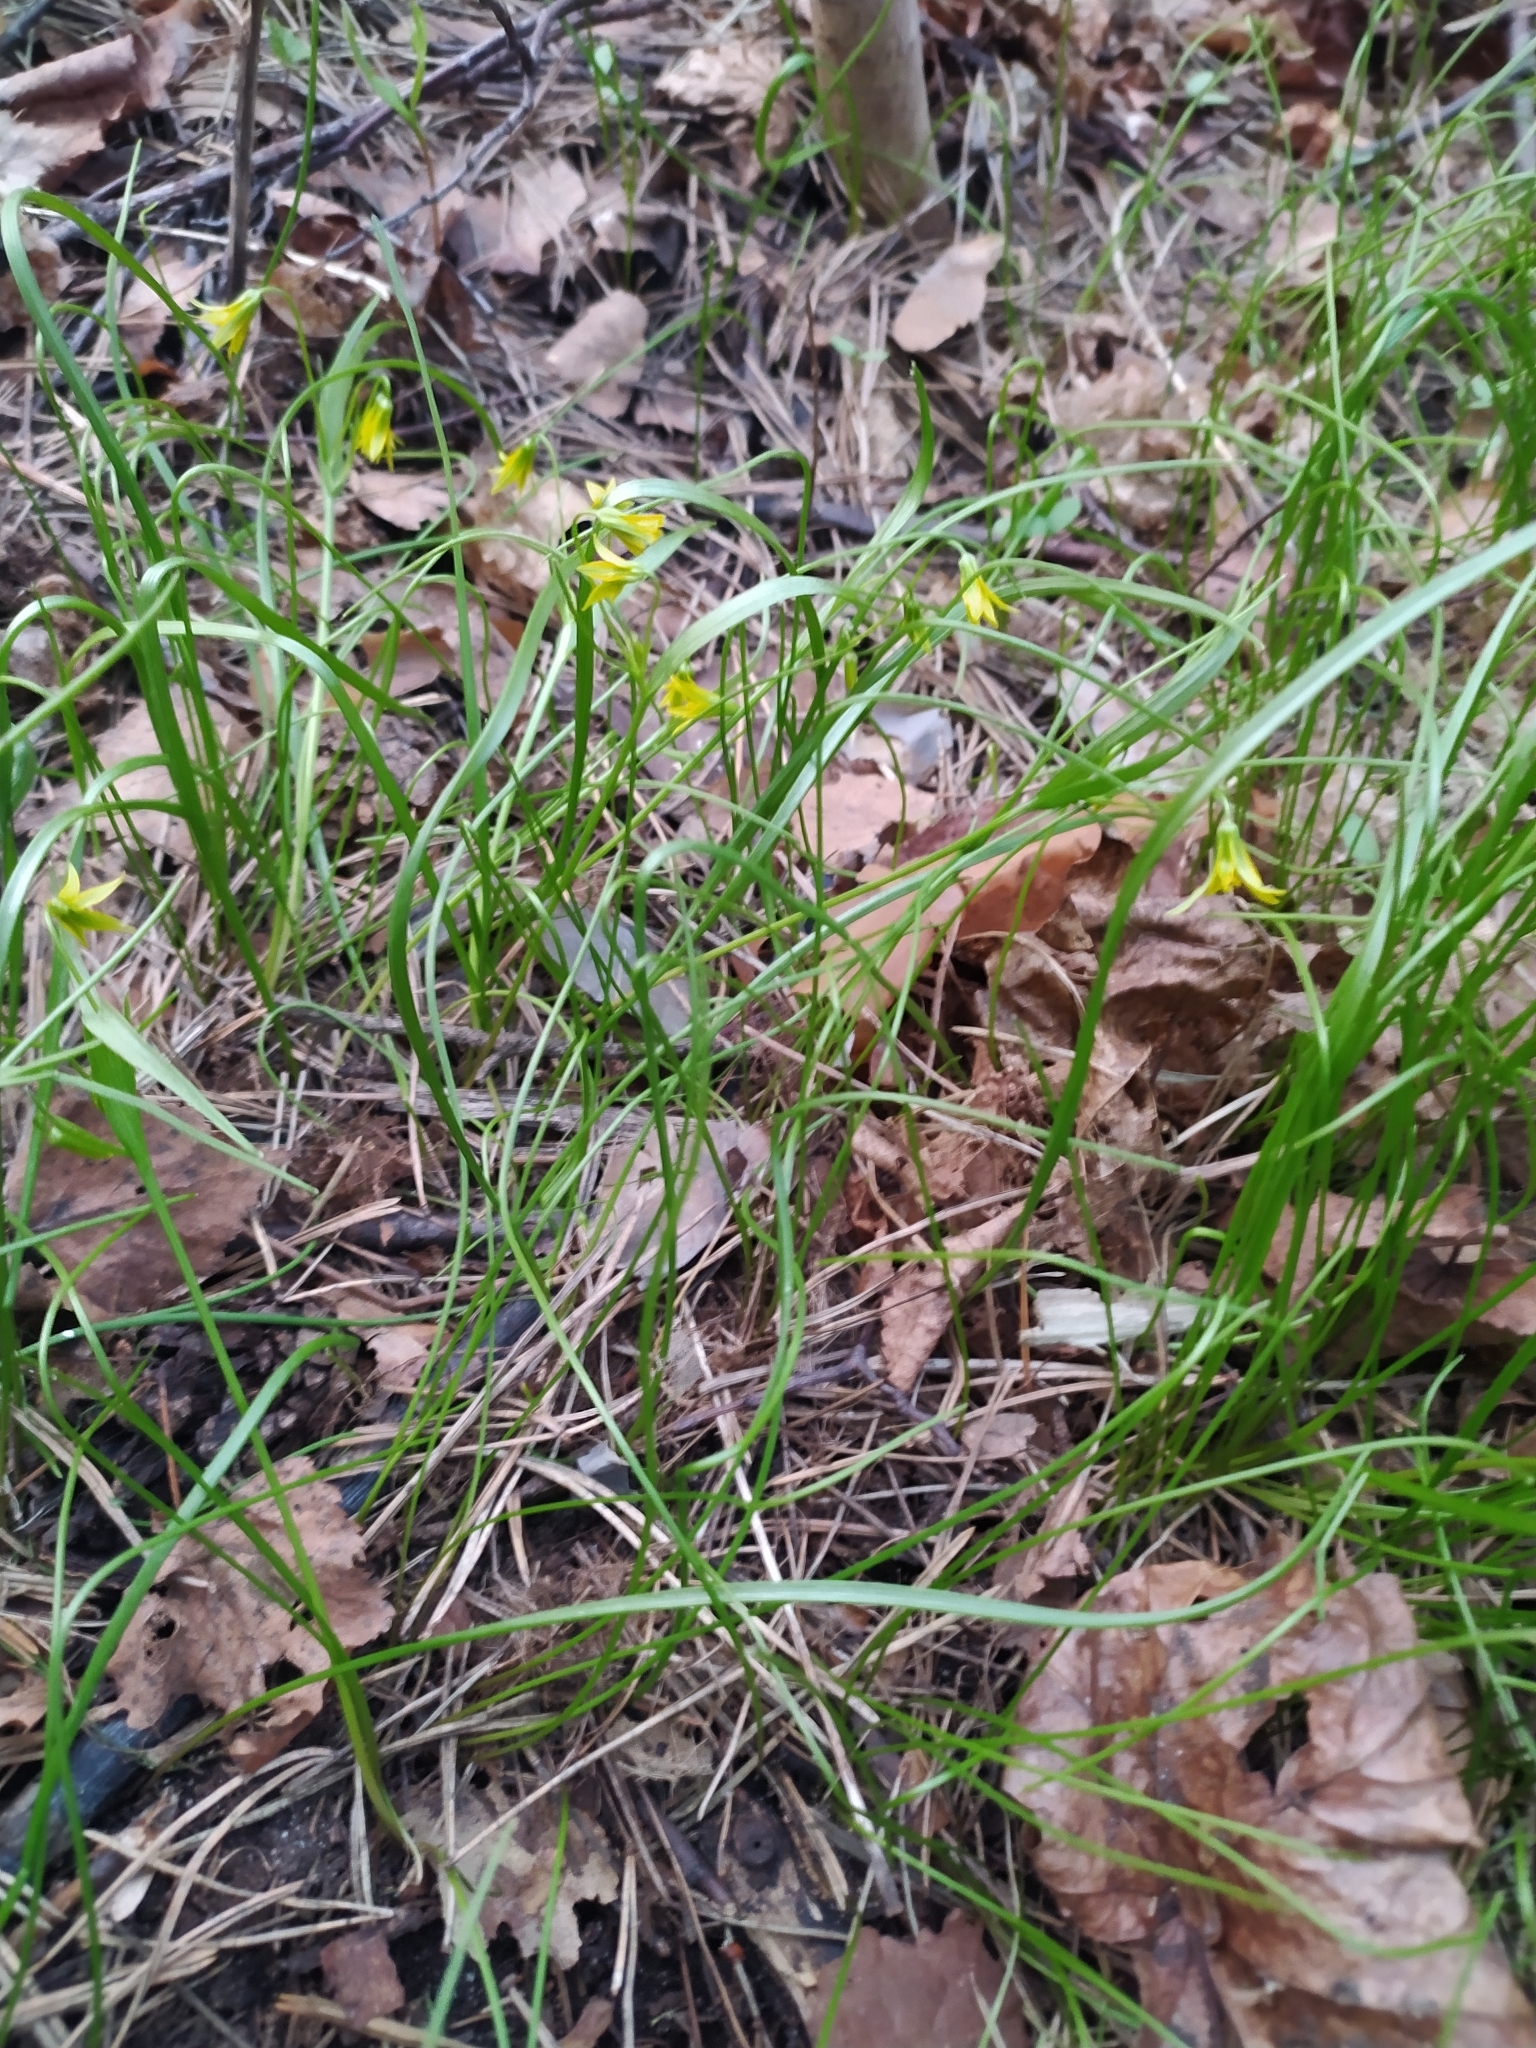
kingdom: Plantae
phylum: Tracheophyta
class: Liliopsida
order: Liliales
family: Liliaceae
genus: Gagea
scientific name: Gagea minima
